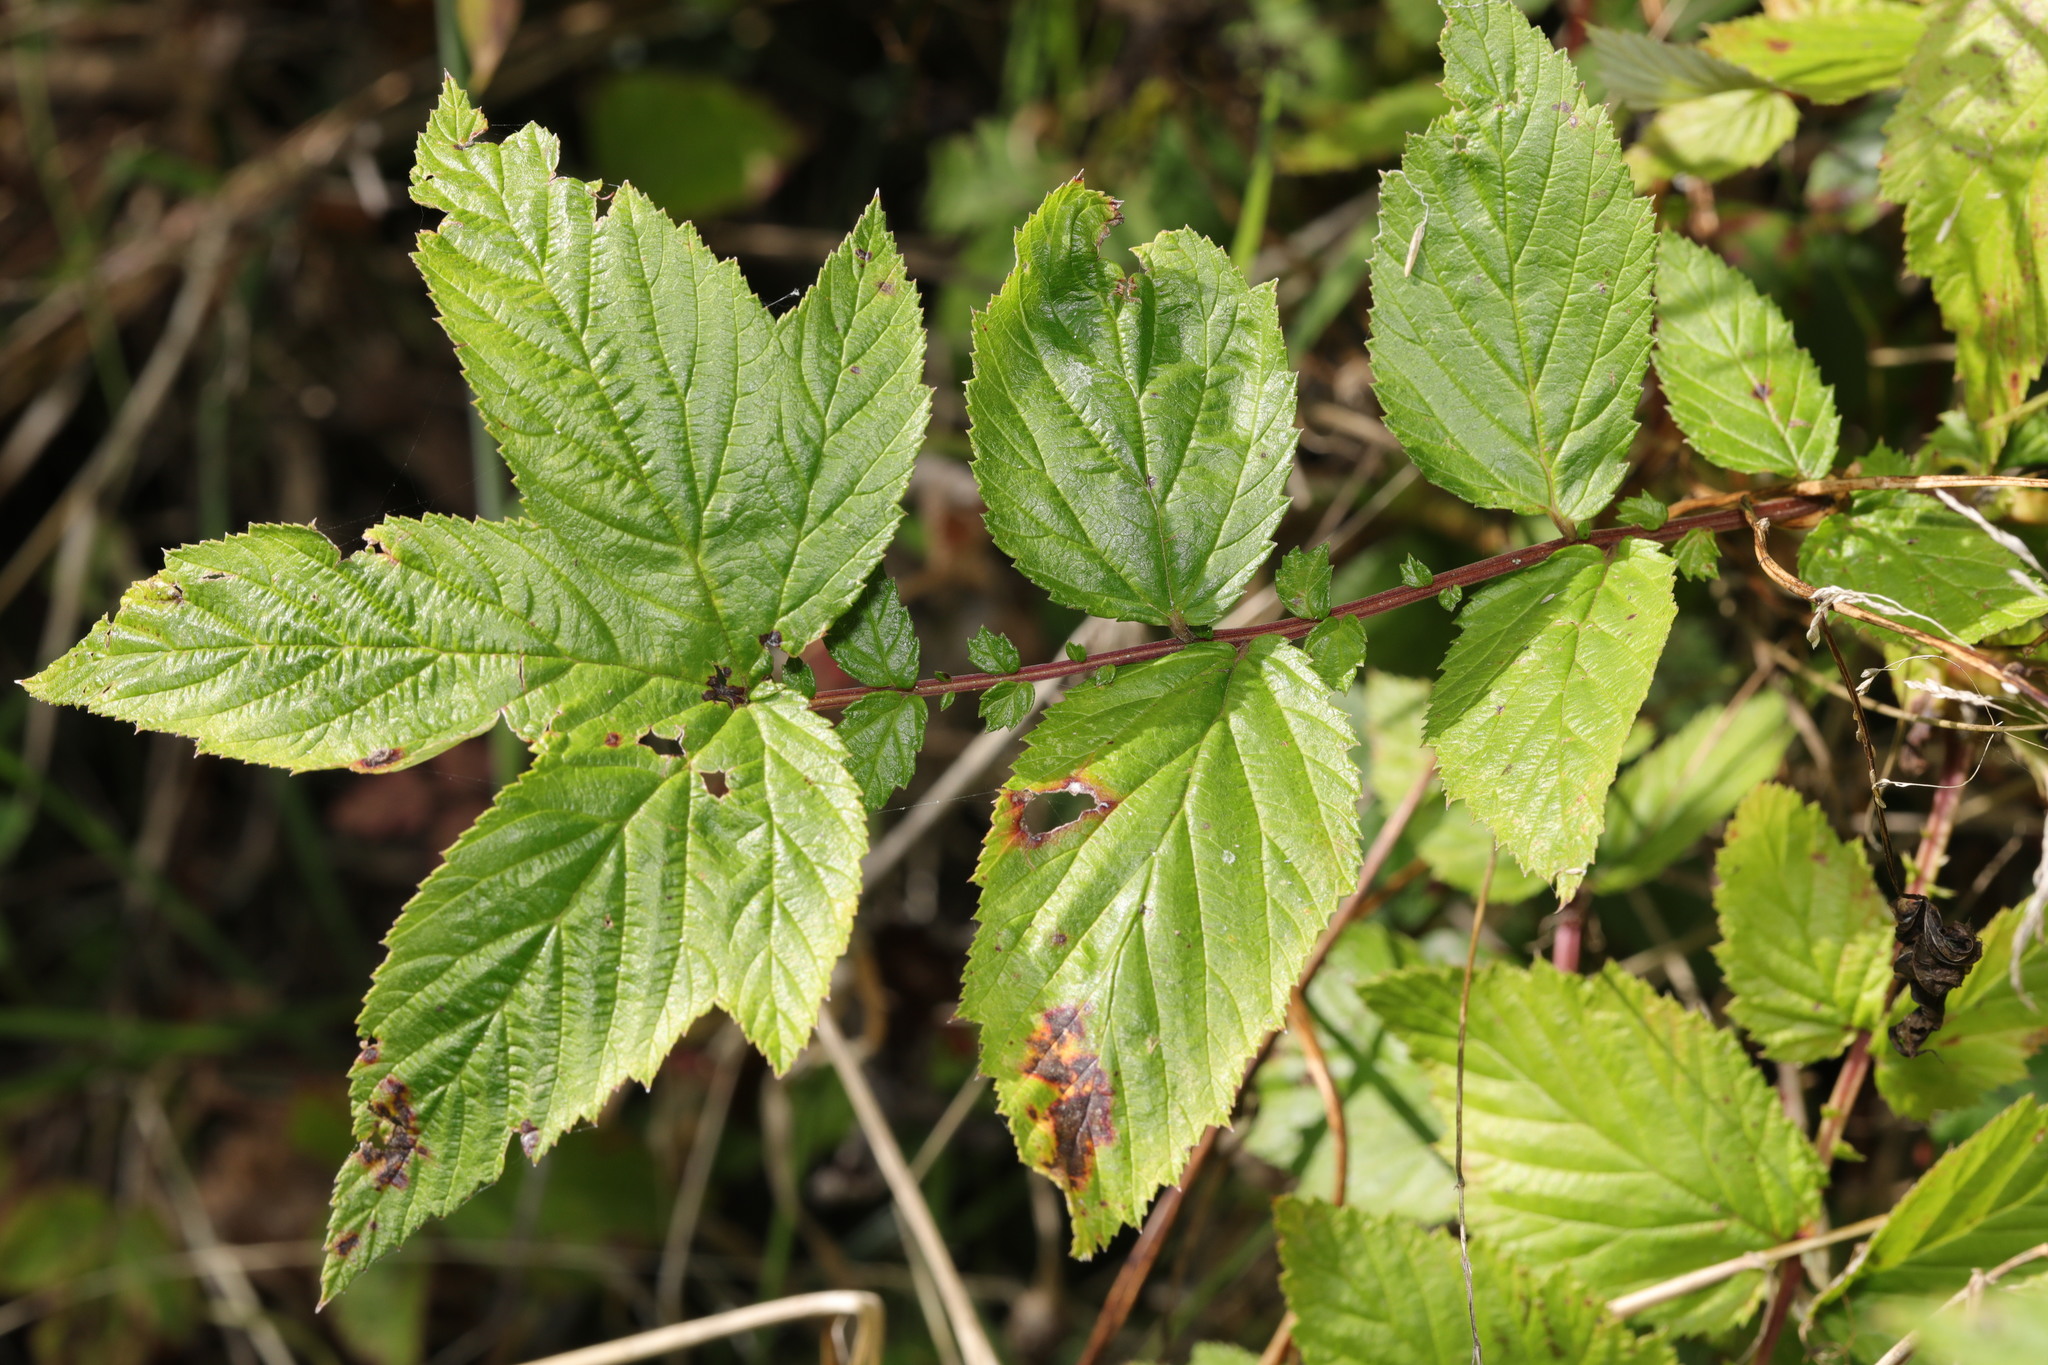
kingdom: Plantae
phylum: Tracheophyta
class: Magnoliopsida
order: Rosales
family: Rosaceae
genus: Filipendula
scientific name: Filipendula ulmaria
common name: Meadowsweet
